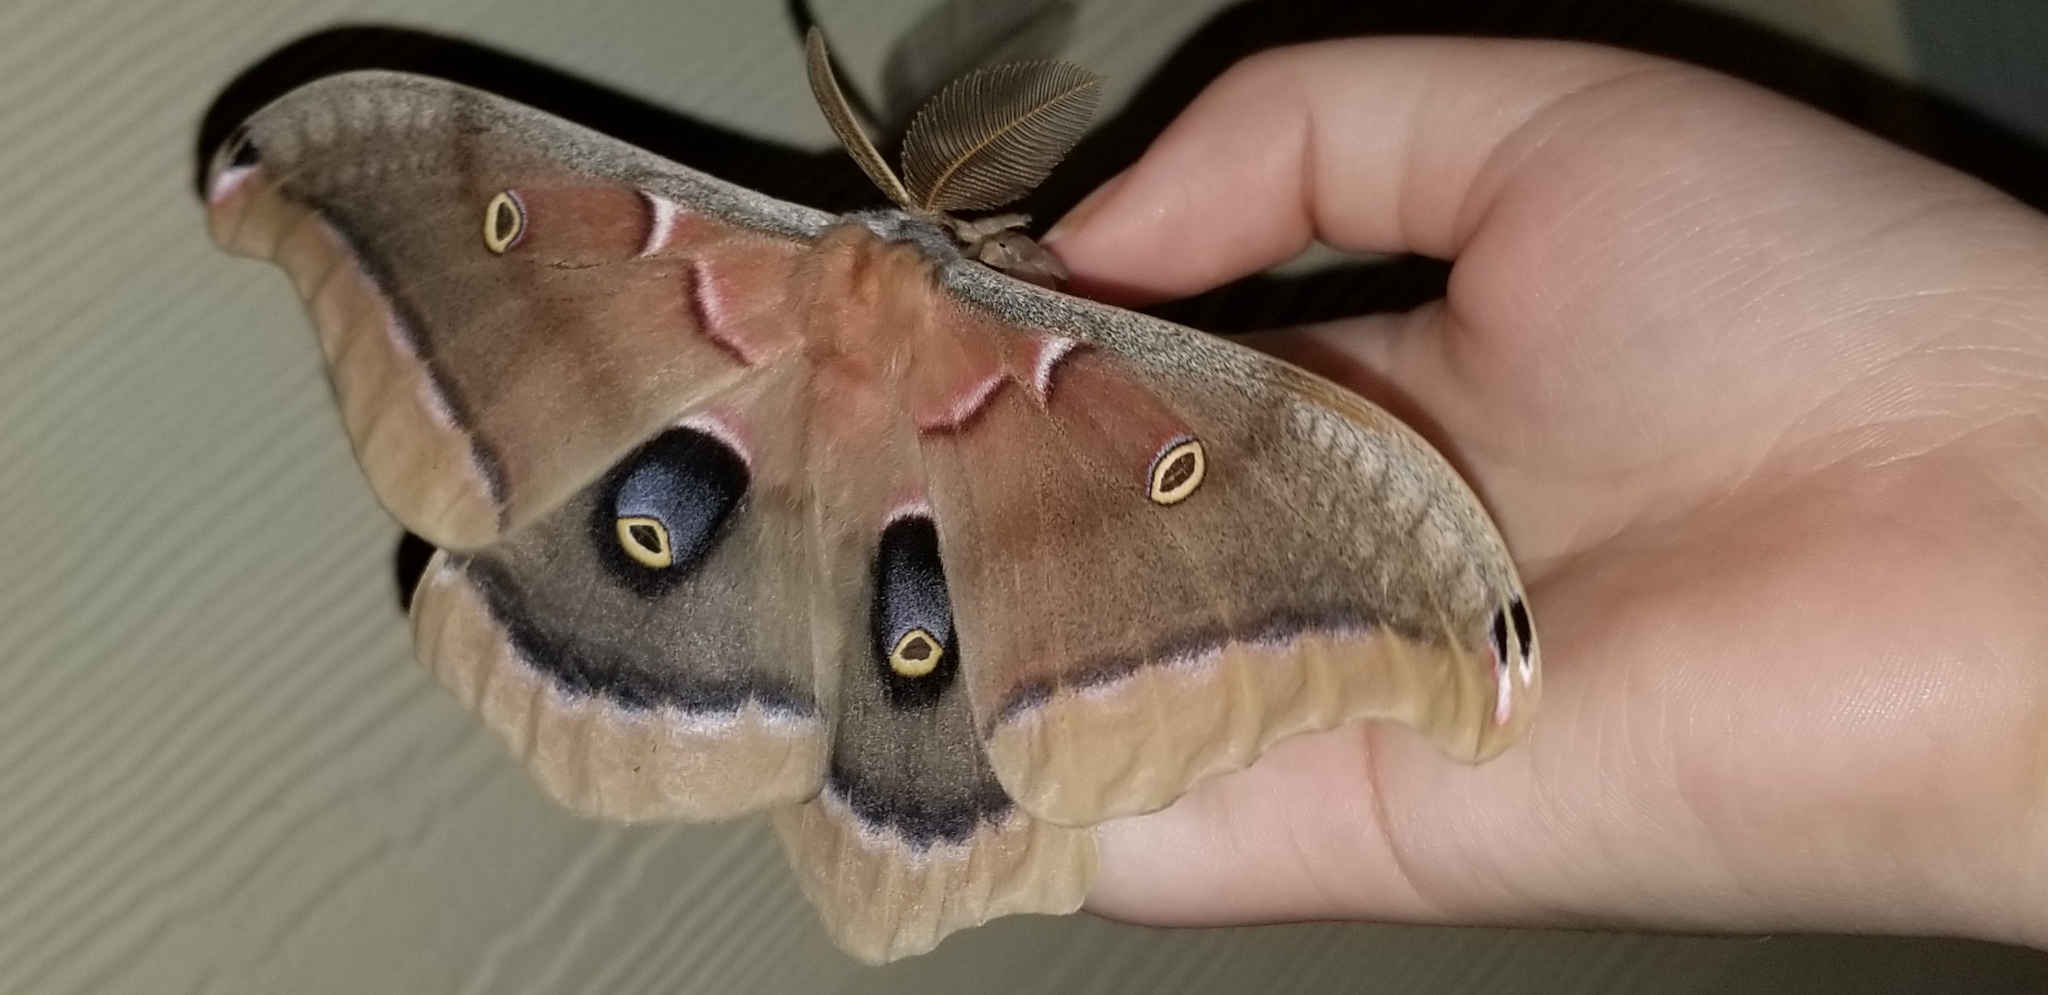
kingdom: Animalia
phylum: Arthropoda
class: Insecta
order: Lepidoptera
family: Saturniidae
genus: Antheraea
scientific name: Antheraea polyphemus
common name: Polyphemus moth
